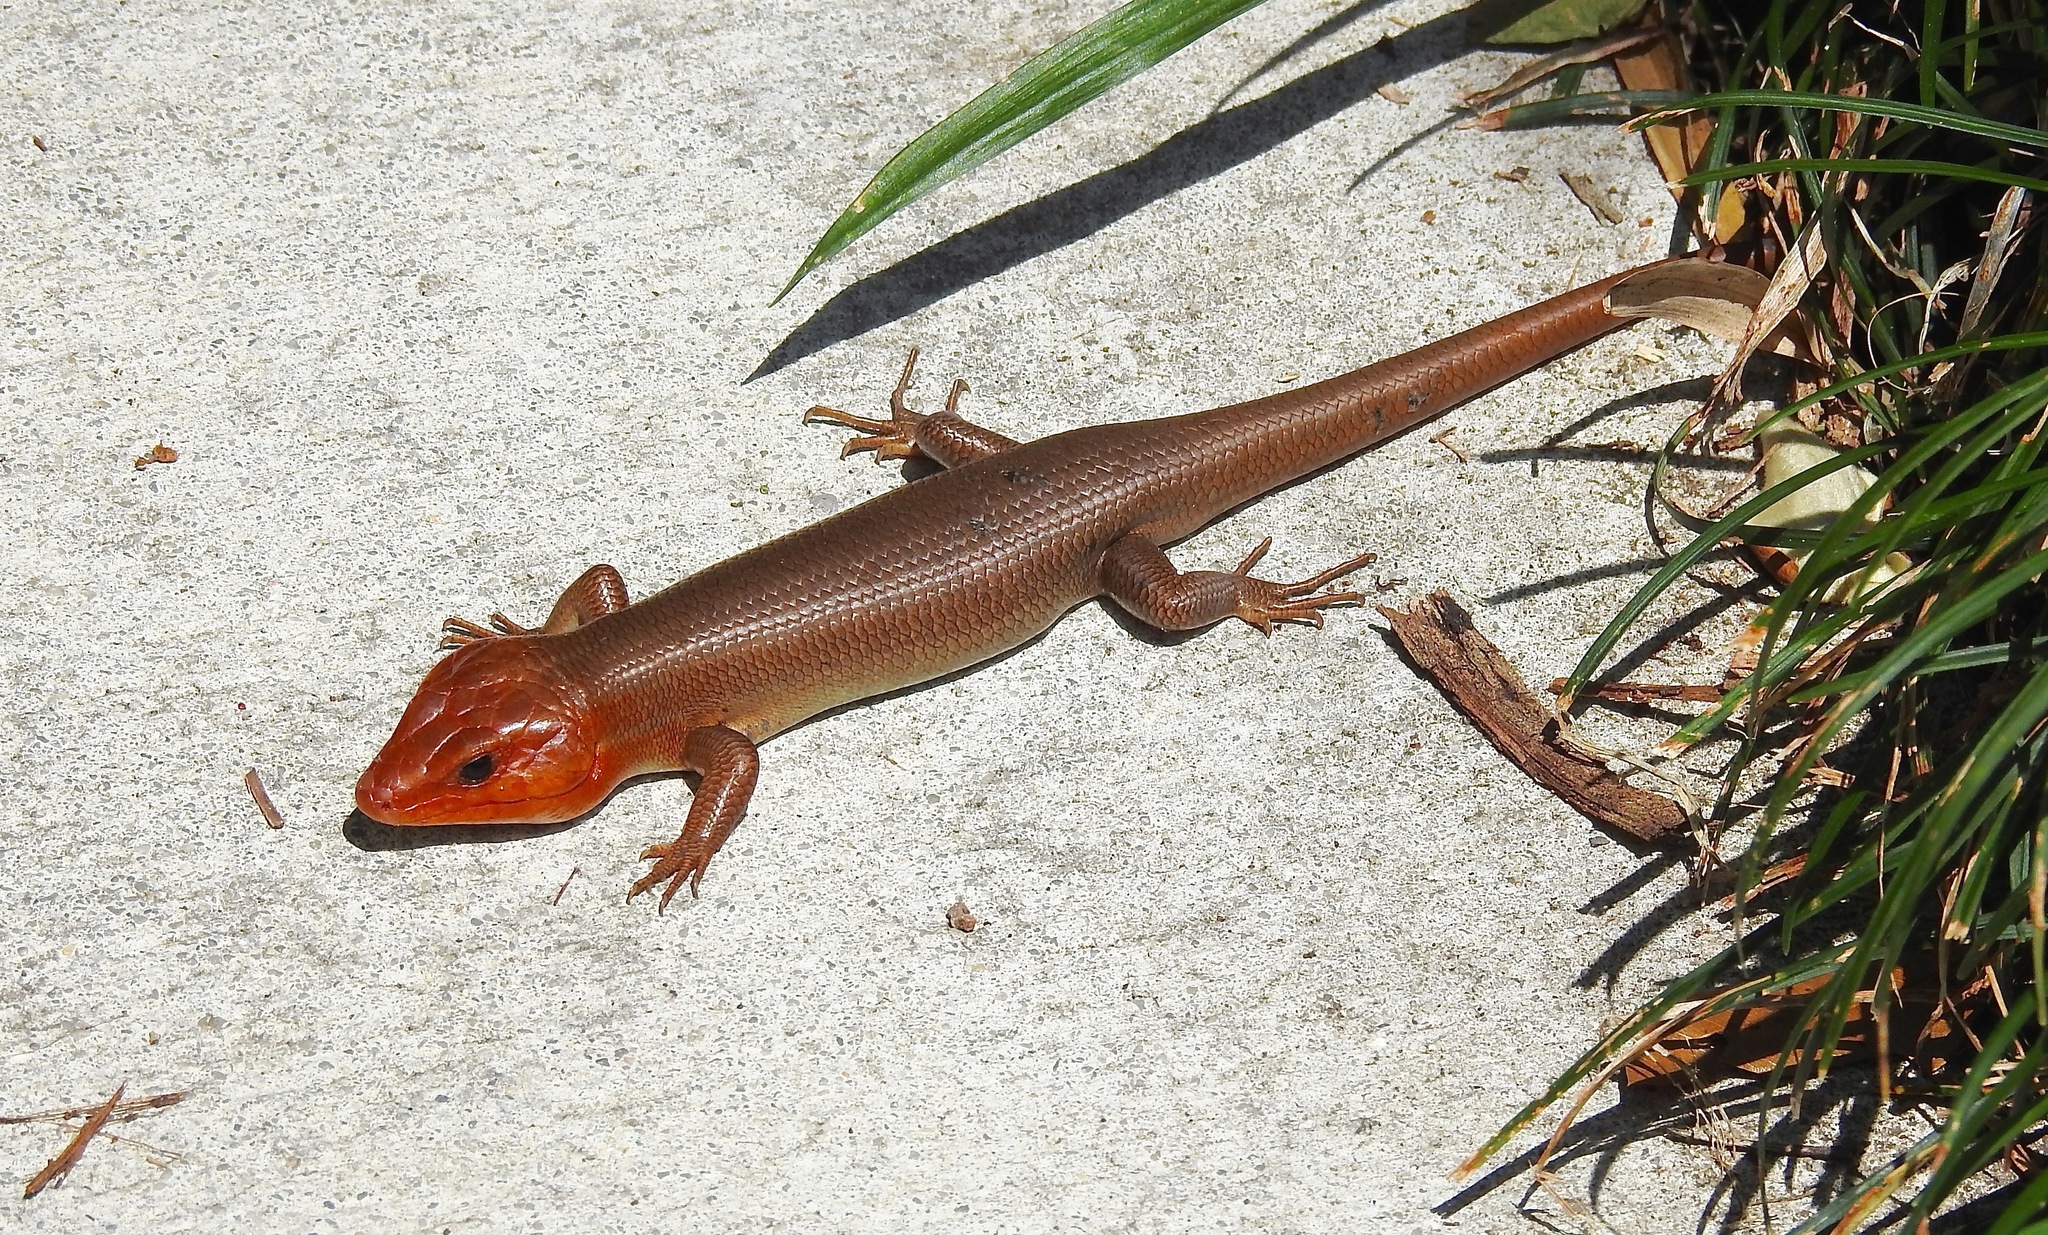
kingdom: Animalia
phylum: Chordata
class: Squamata
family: Scincidae
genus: Plestiodon
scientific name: Plestiodon laticeps
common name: Broadhead skink
